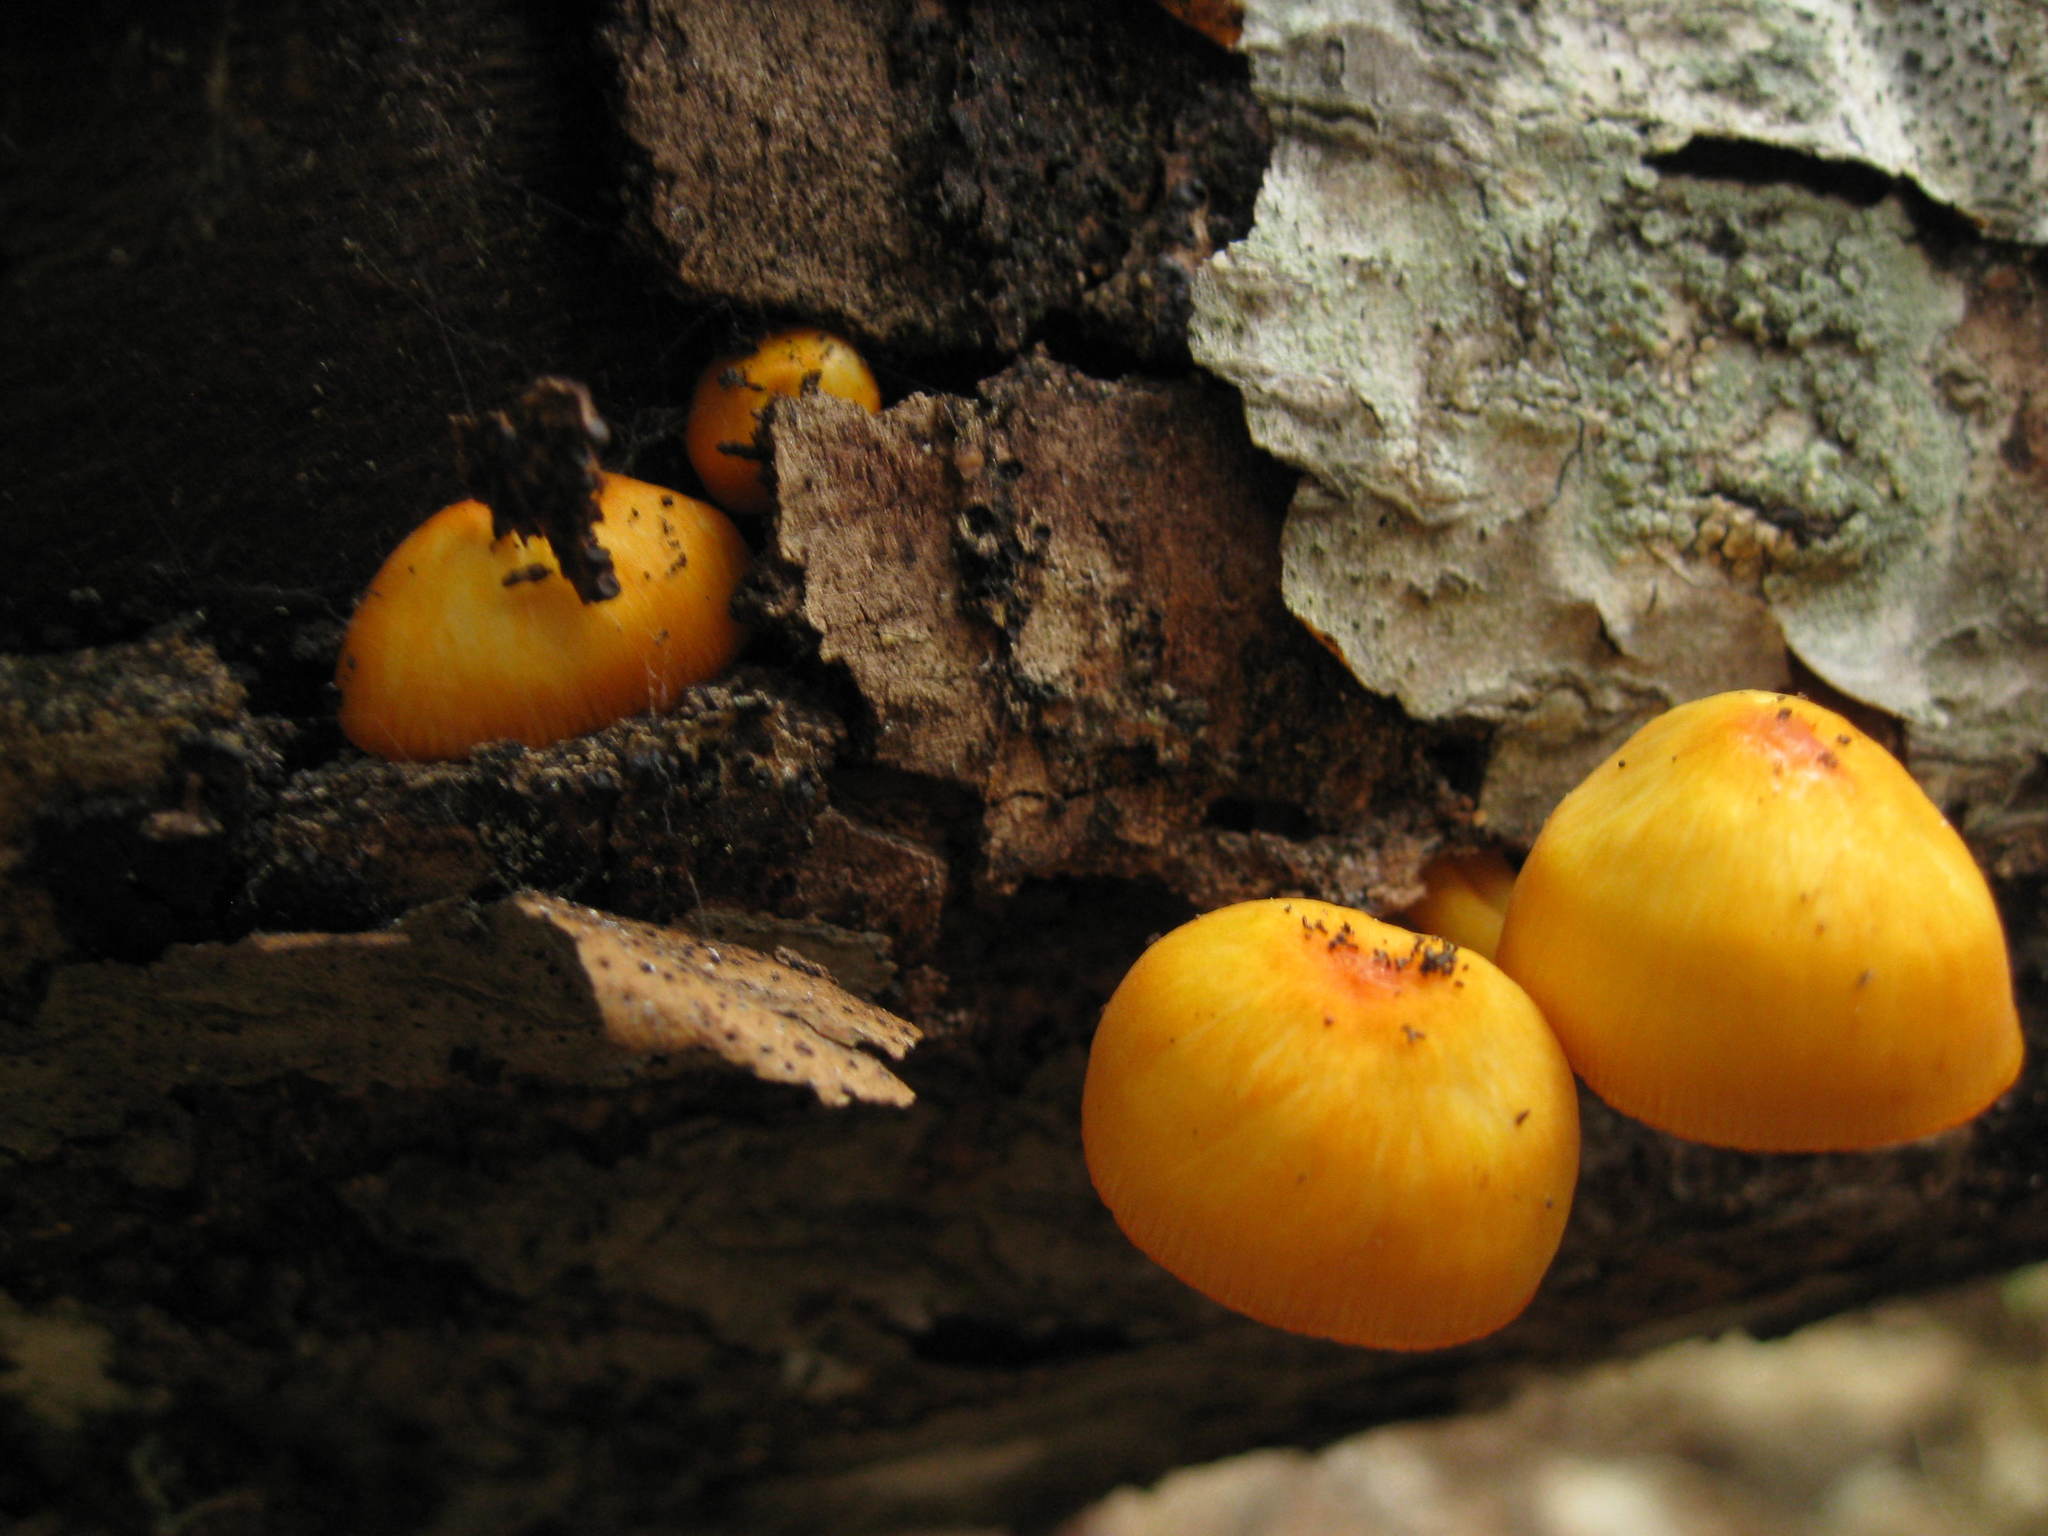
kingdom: Fungi
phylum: Basidiomycota
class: Agaricomycetes
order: Agaricales
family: Mycenaceae
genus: Mycena
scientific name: Mycena leaiana
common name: Orange mycena
